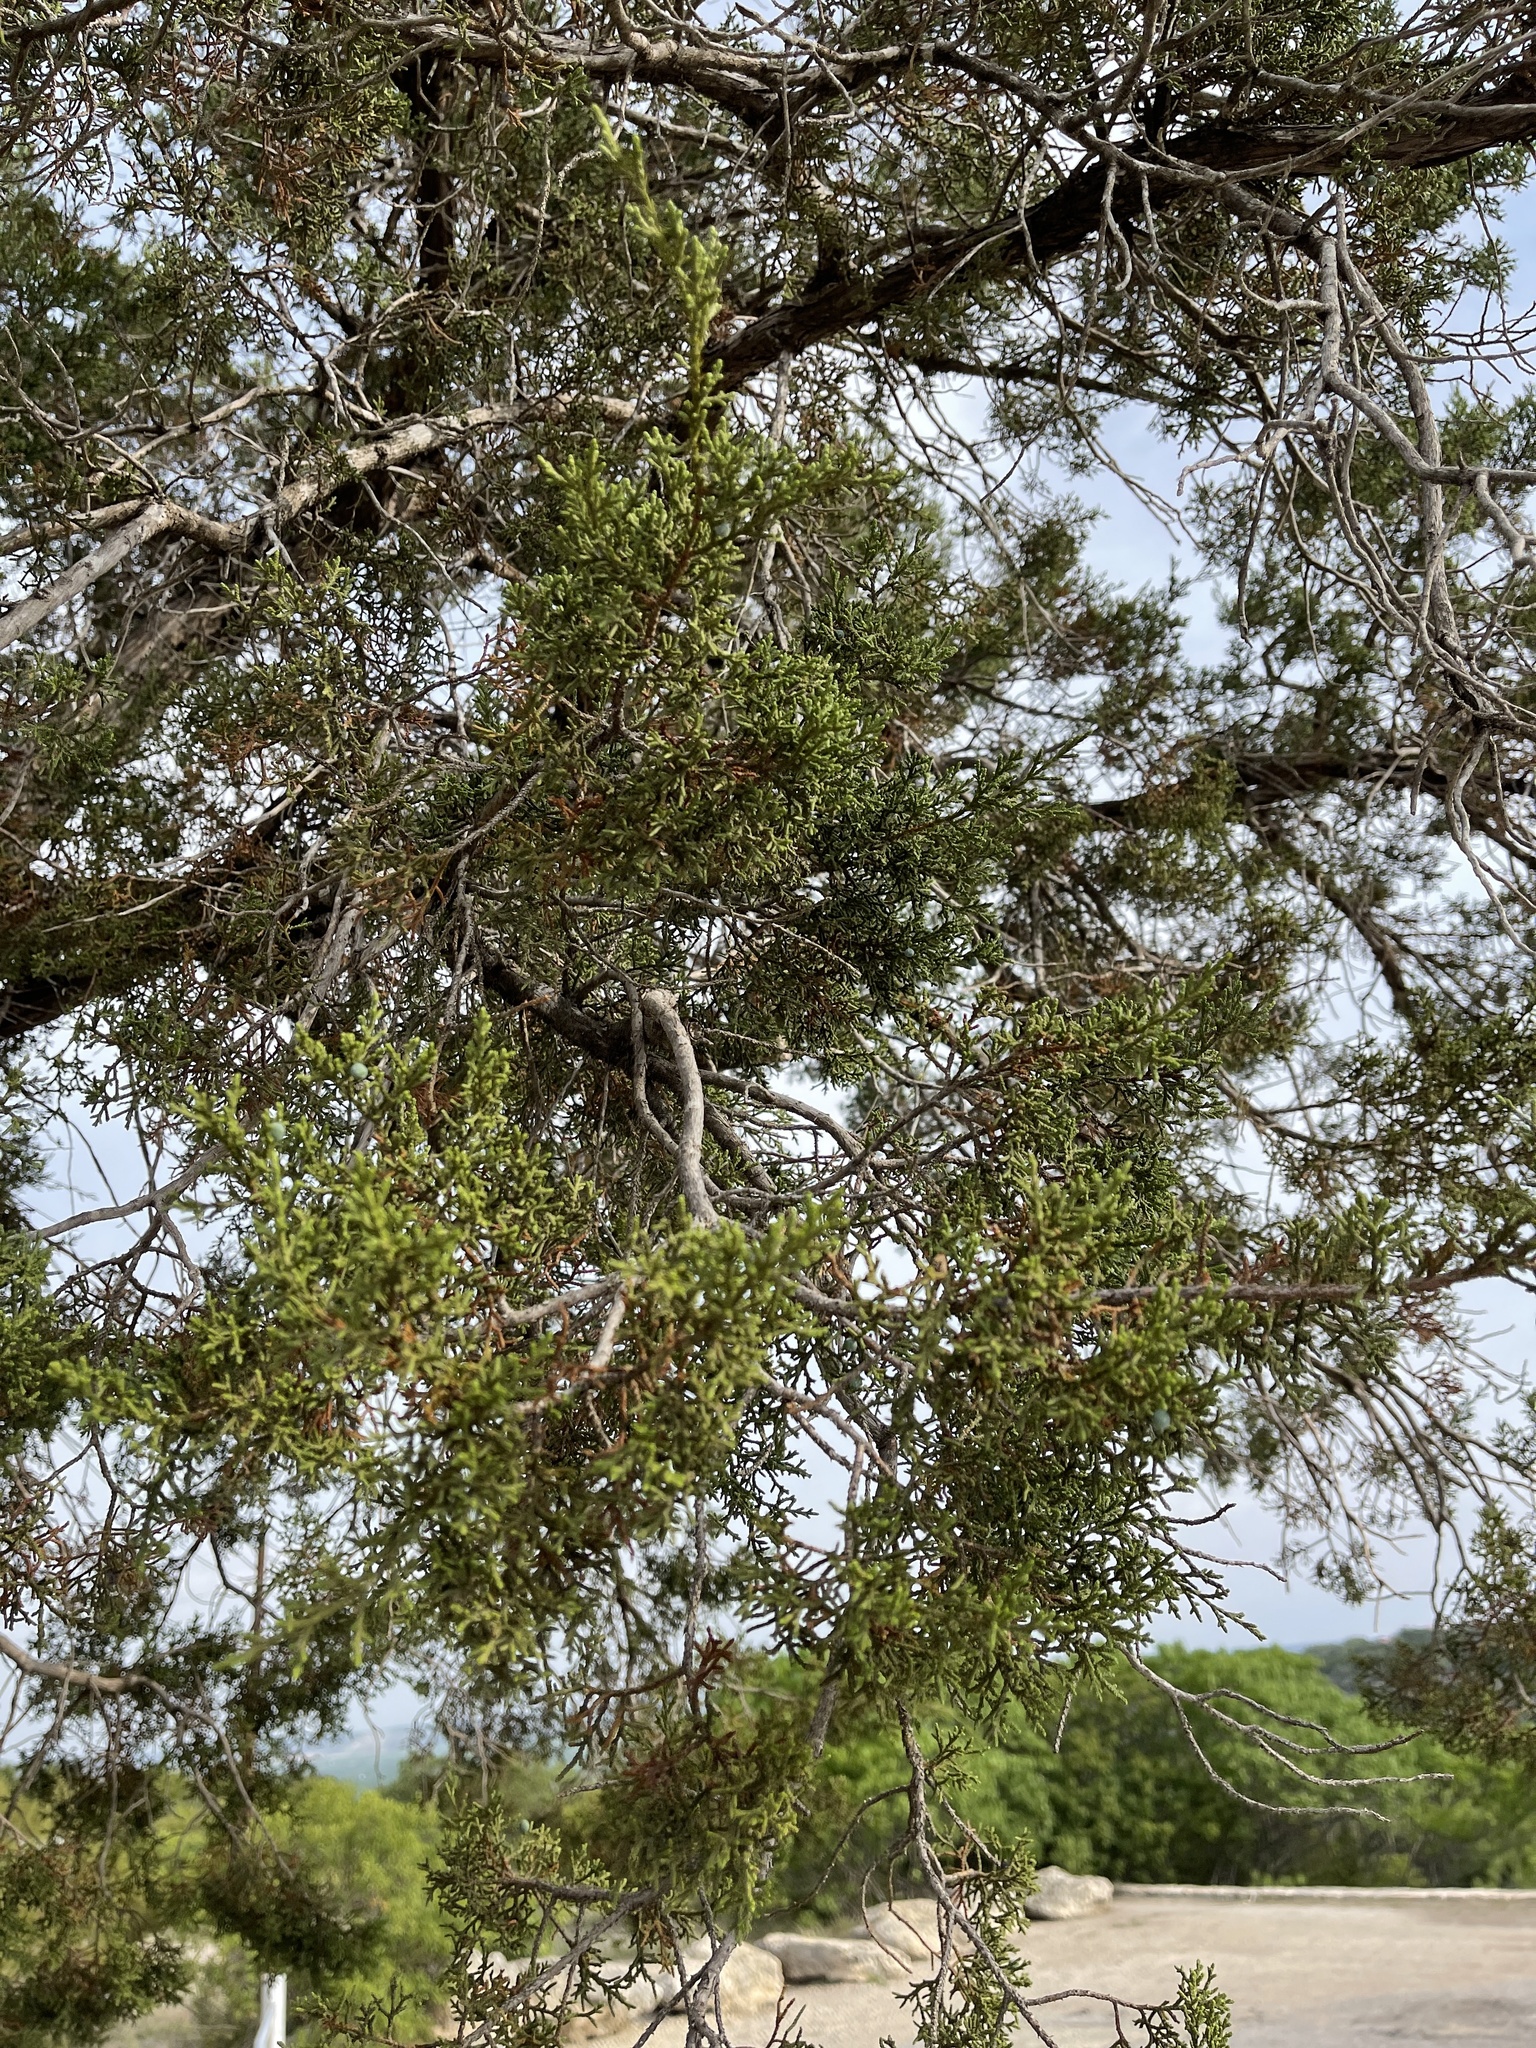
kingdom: Plantae
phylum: Tracheophyta
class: Pinopsida
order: Pinales
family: Cupressaceae
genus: Juniperus
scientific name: Juniperus ashei
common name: Mexican juniper
